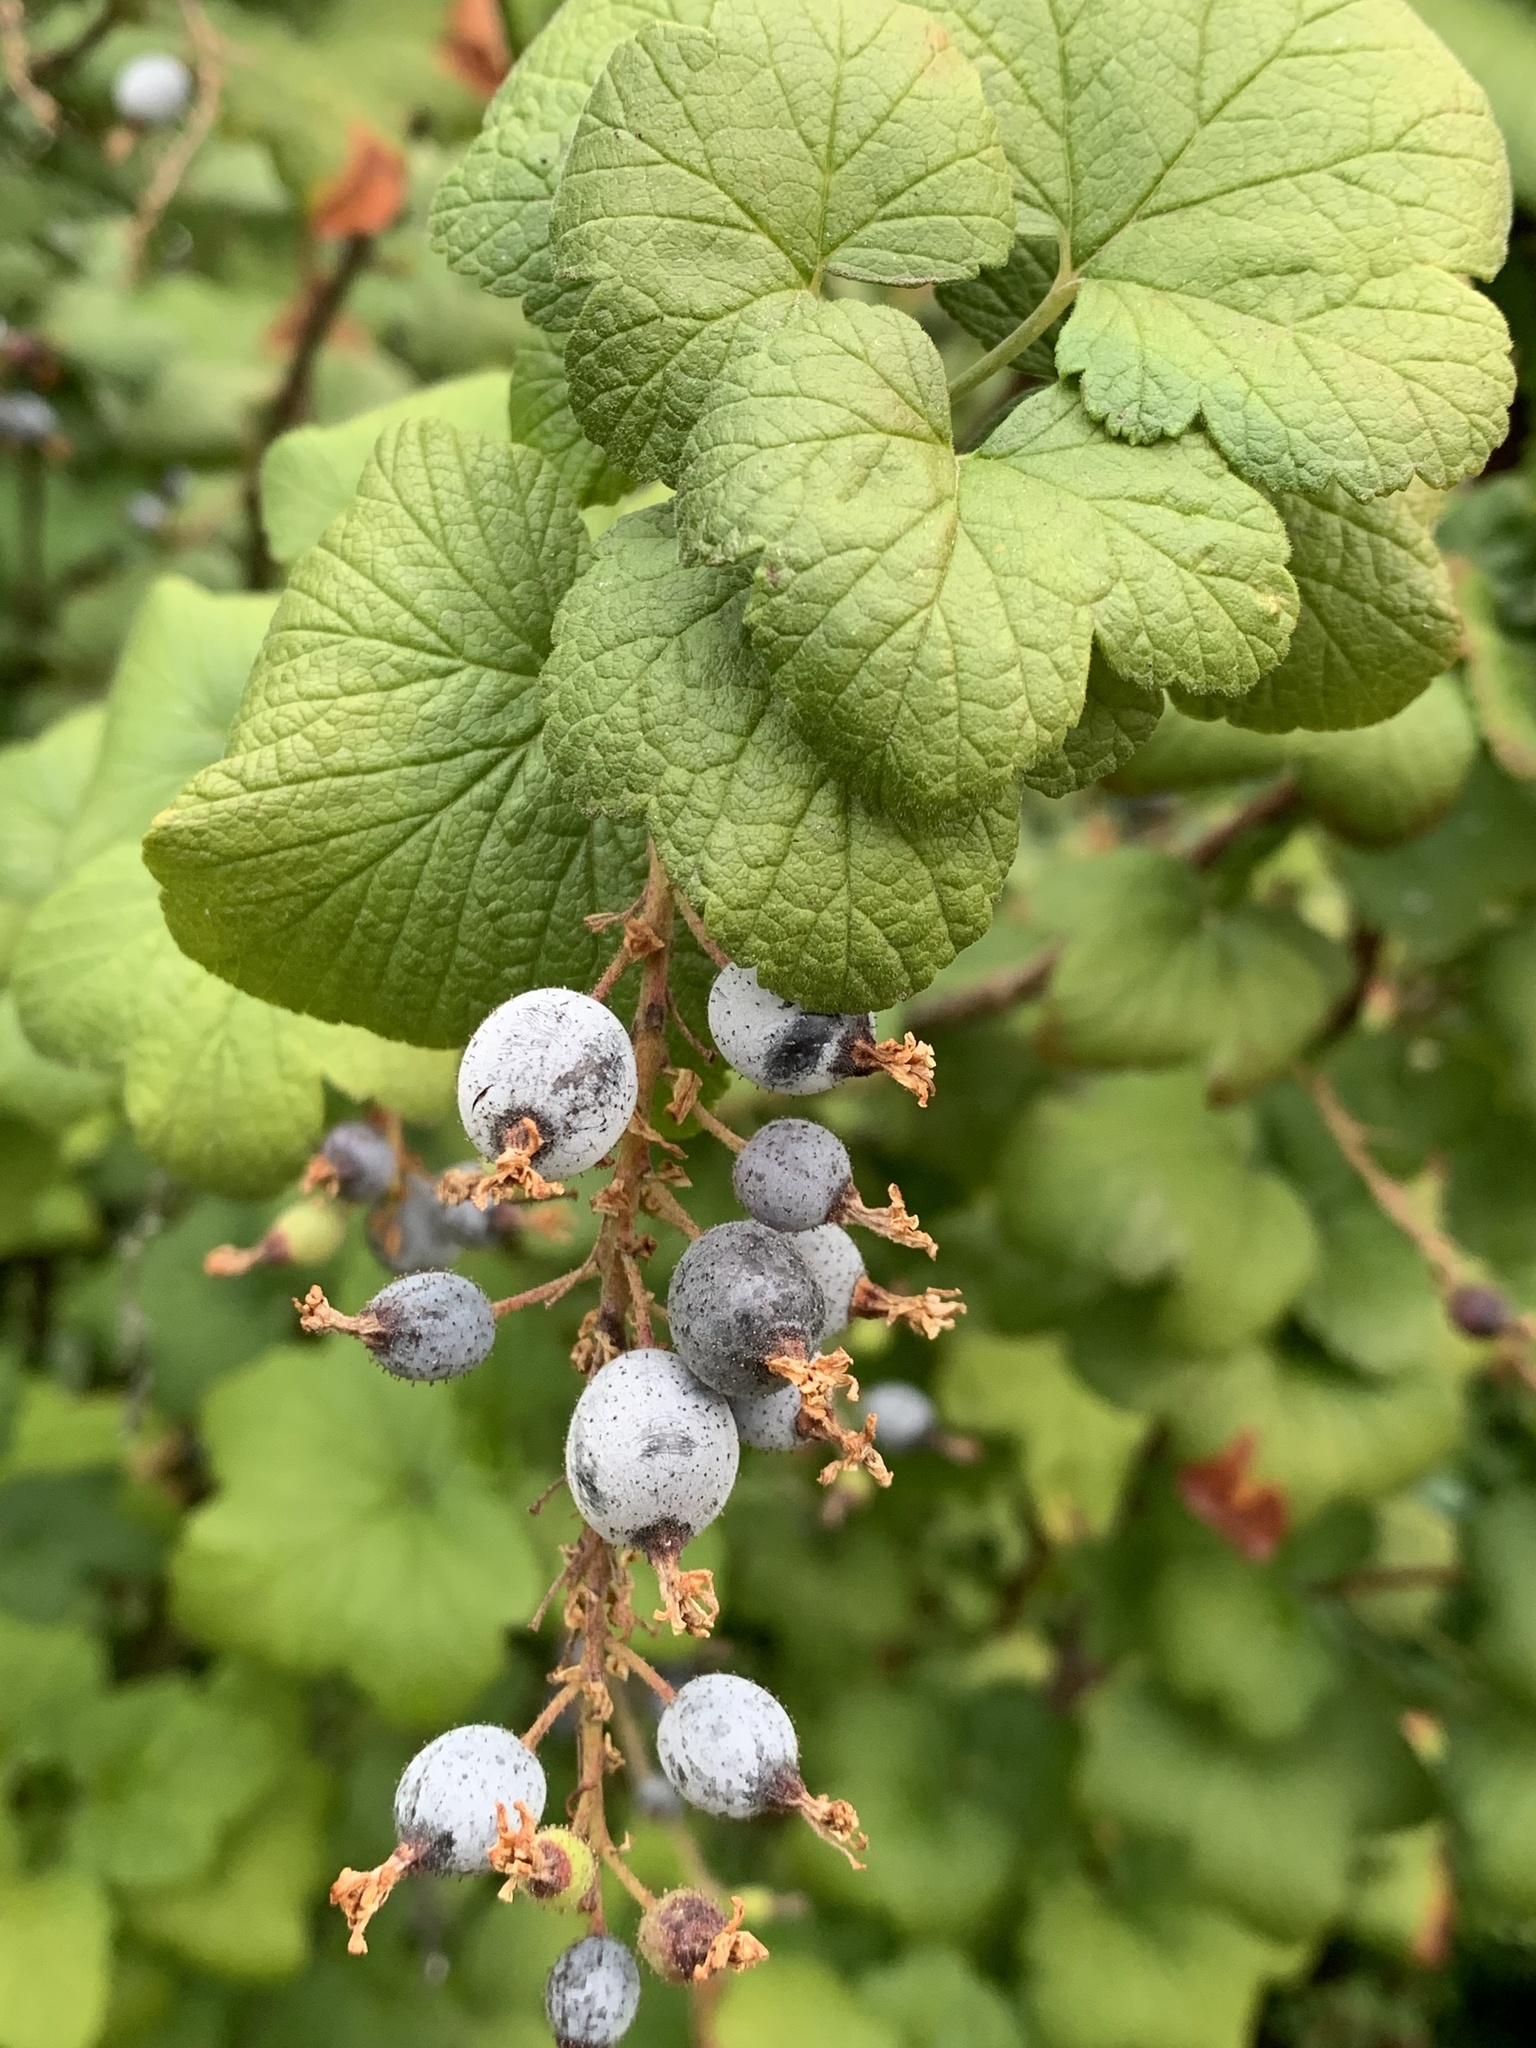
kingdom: Plantae
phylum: Tracheophyta
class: Magnoliopsida
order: Saxifragales
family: Grossulariaceae
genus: Ribes
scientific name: Ribes sanguineum
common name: Flowering currant
